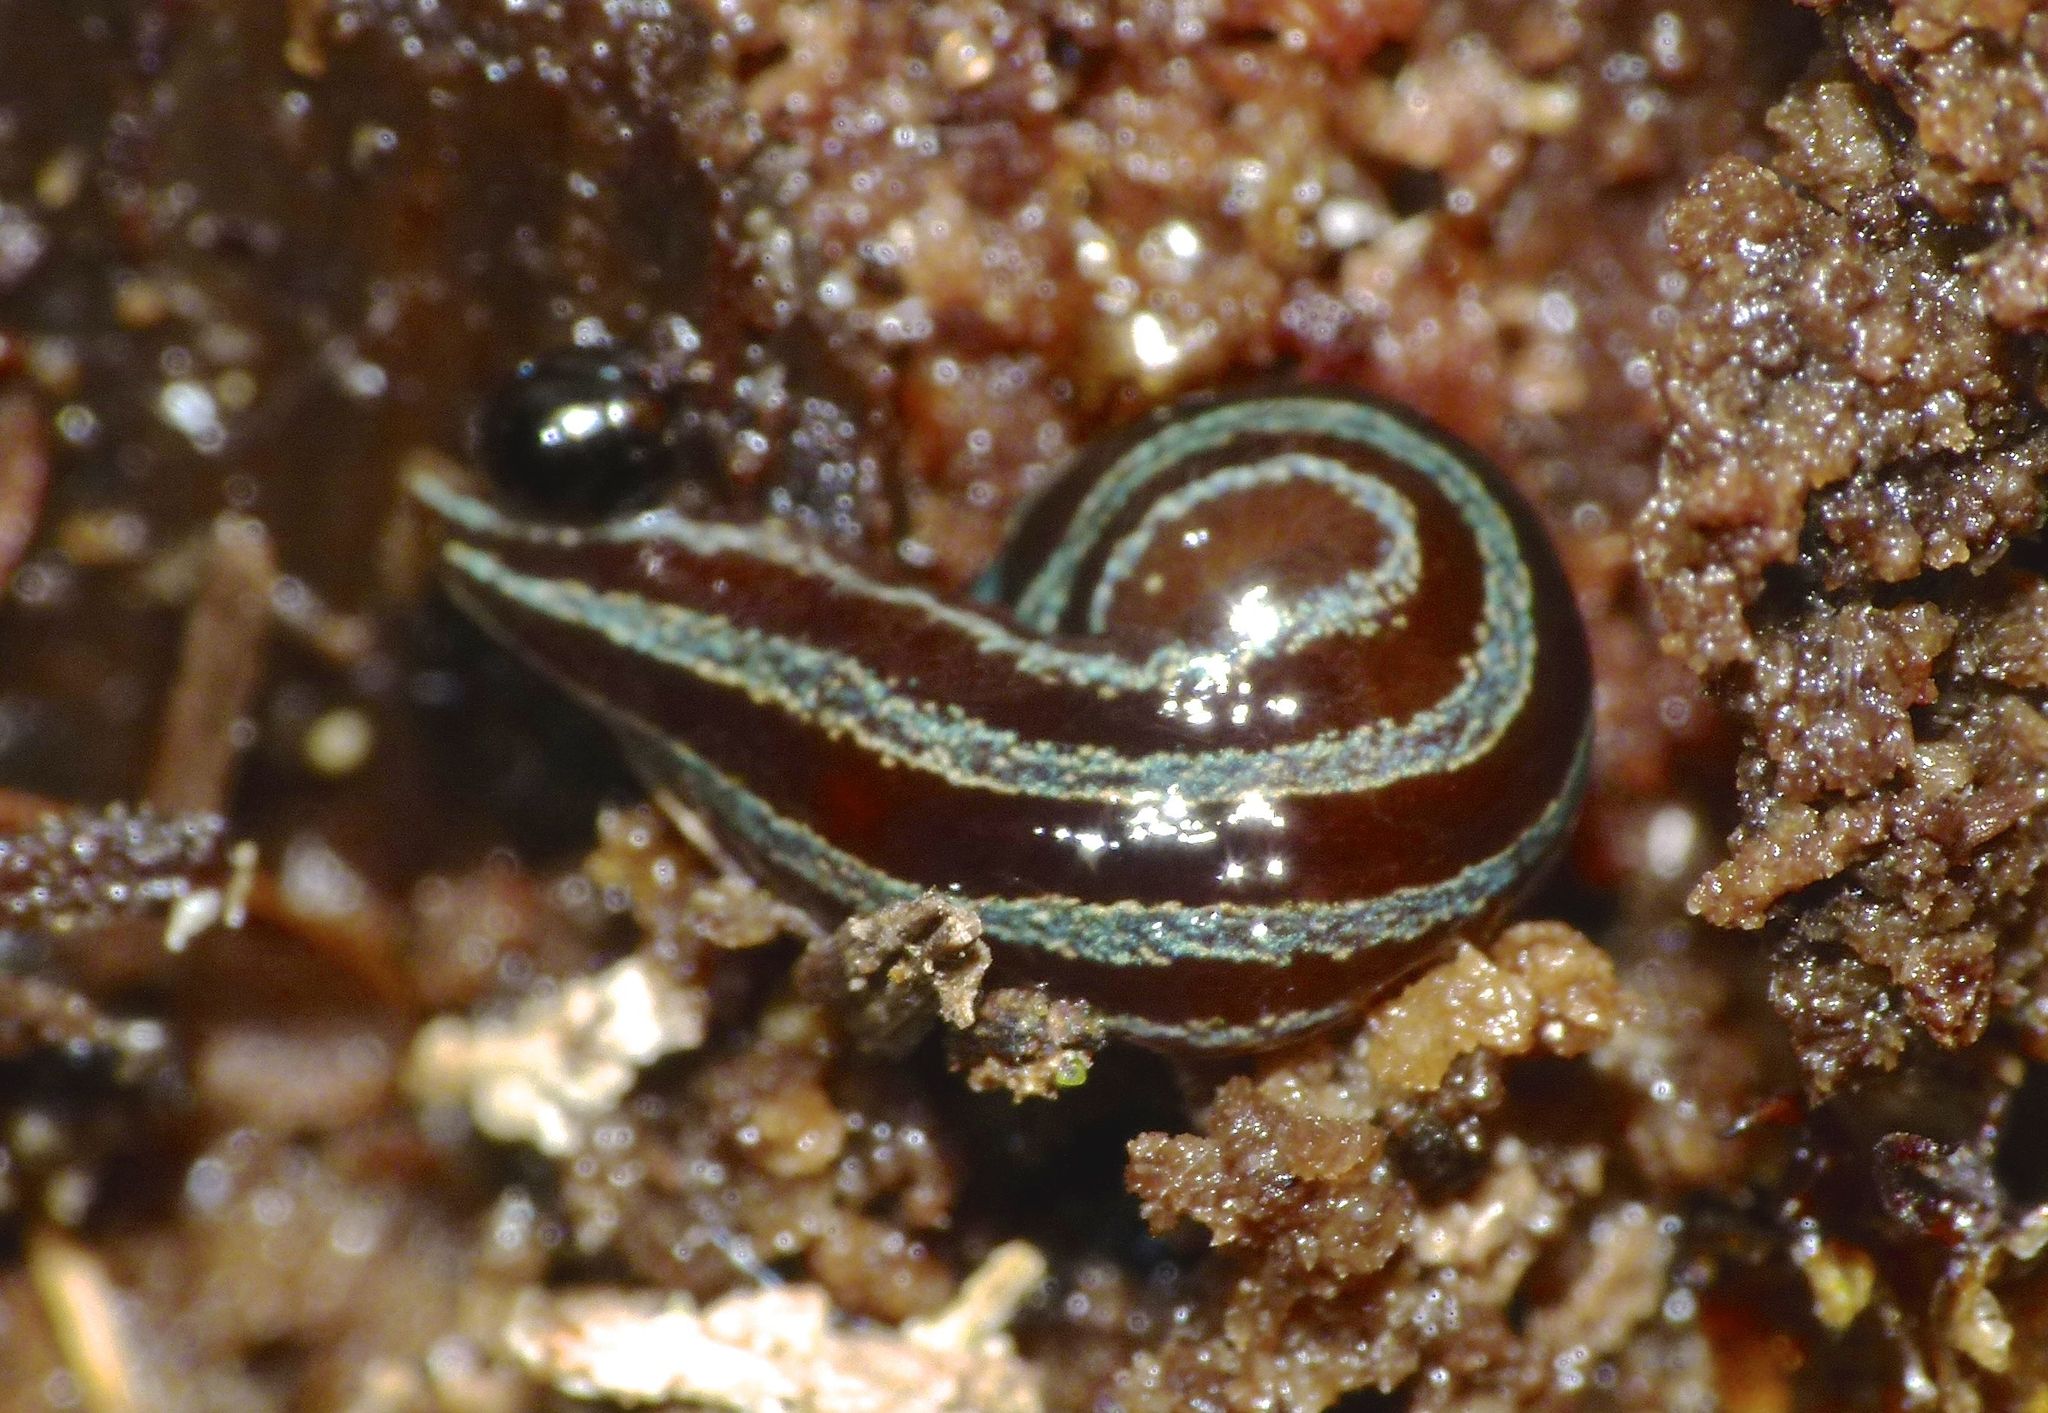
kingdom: Animalia
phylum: Platyhelminthes
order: Tricladida
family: Geoplanidae
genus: Australopacifica
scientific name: Australopacifica splendens
